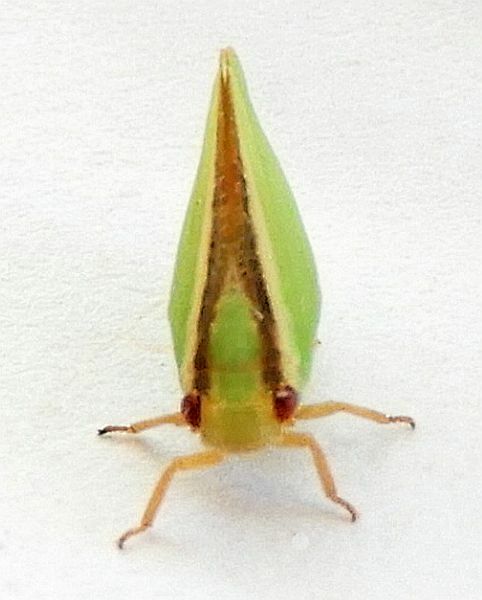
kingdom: Animalia
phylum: Arthropoda
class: Insecta
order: Hemiptera
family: Acanaloniidae
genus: Acanalonia
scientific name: Acanalonia fasciata
